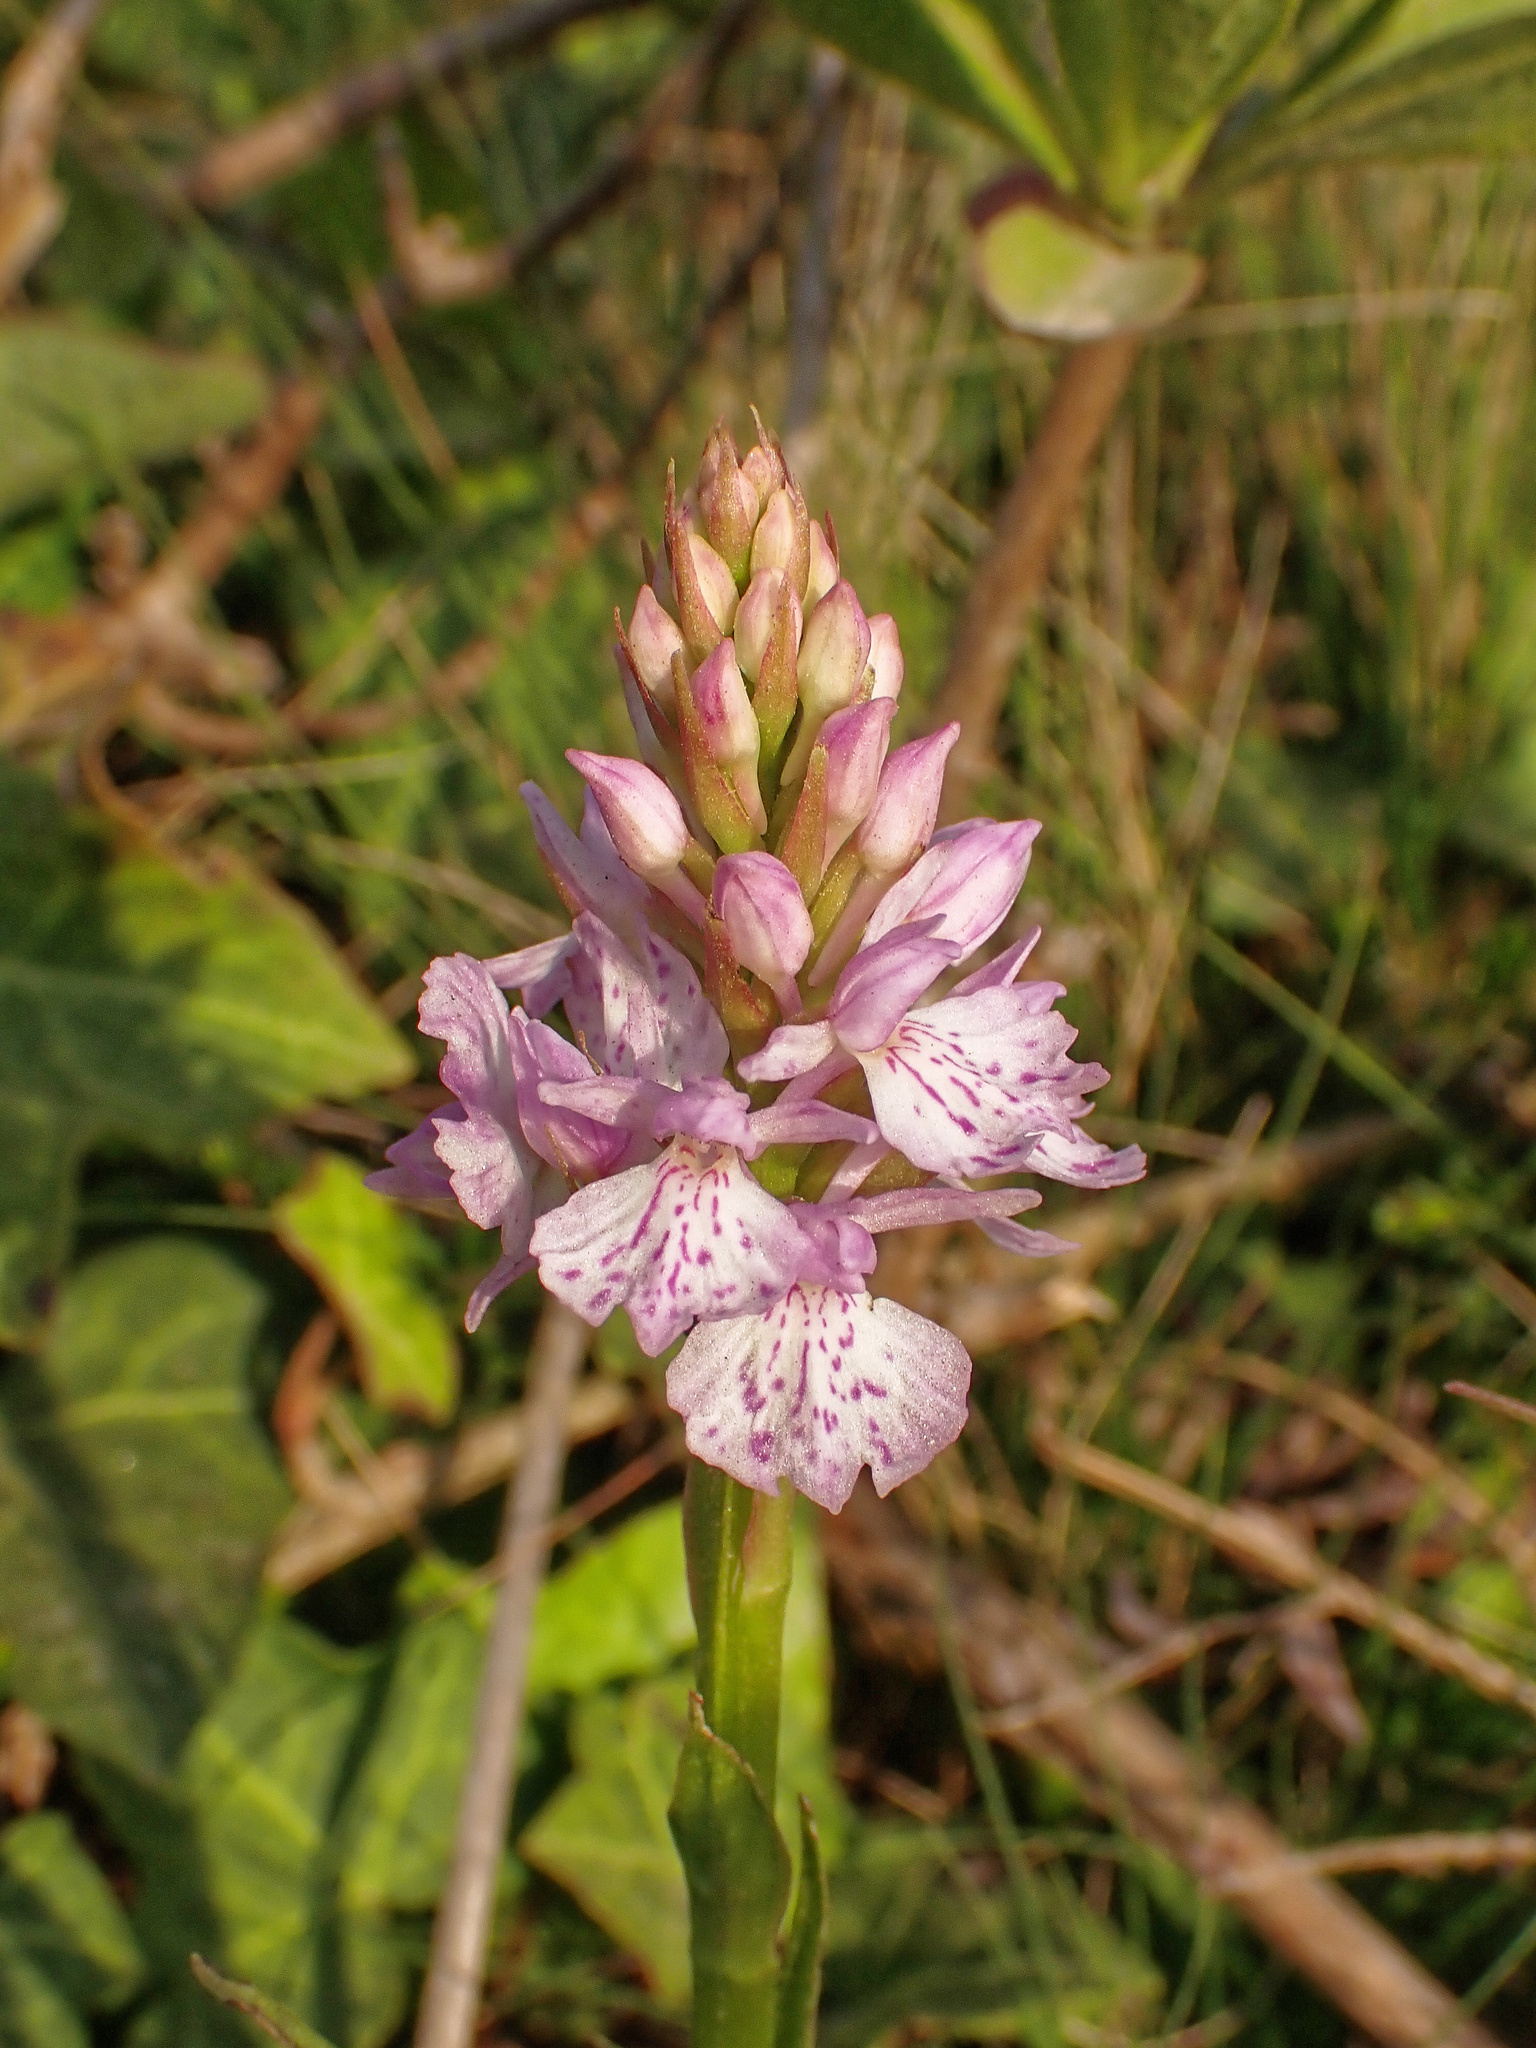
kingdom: Plantae
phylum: Tracheophyta
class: Liliopsida
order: Asparagales
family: Orchidaceae
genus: Dactylorhiza
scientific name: Dactylorhiza maculata
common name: Heath spotted-orchid
